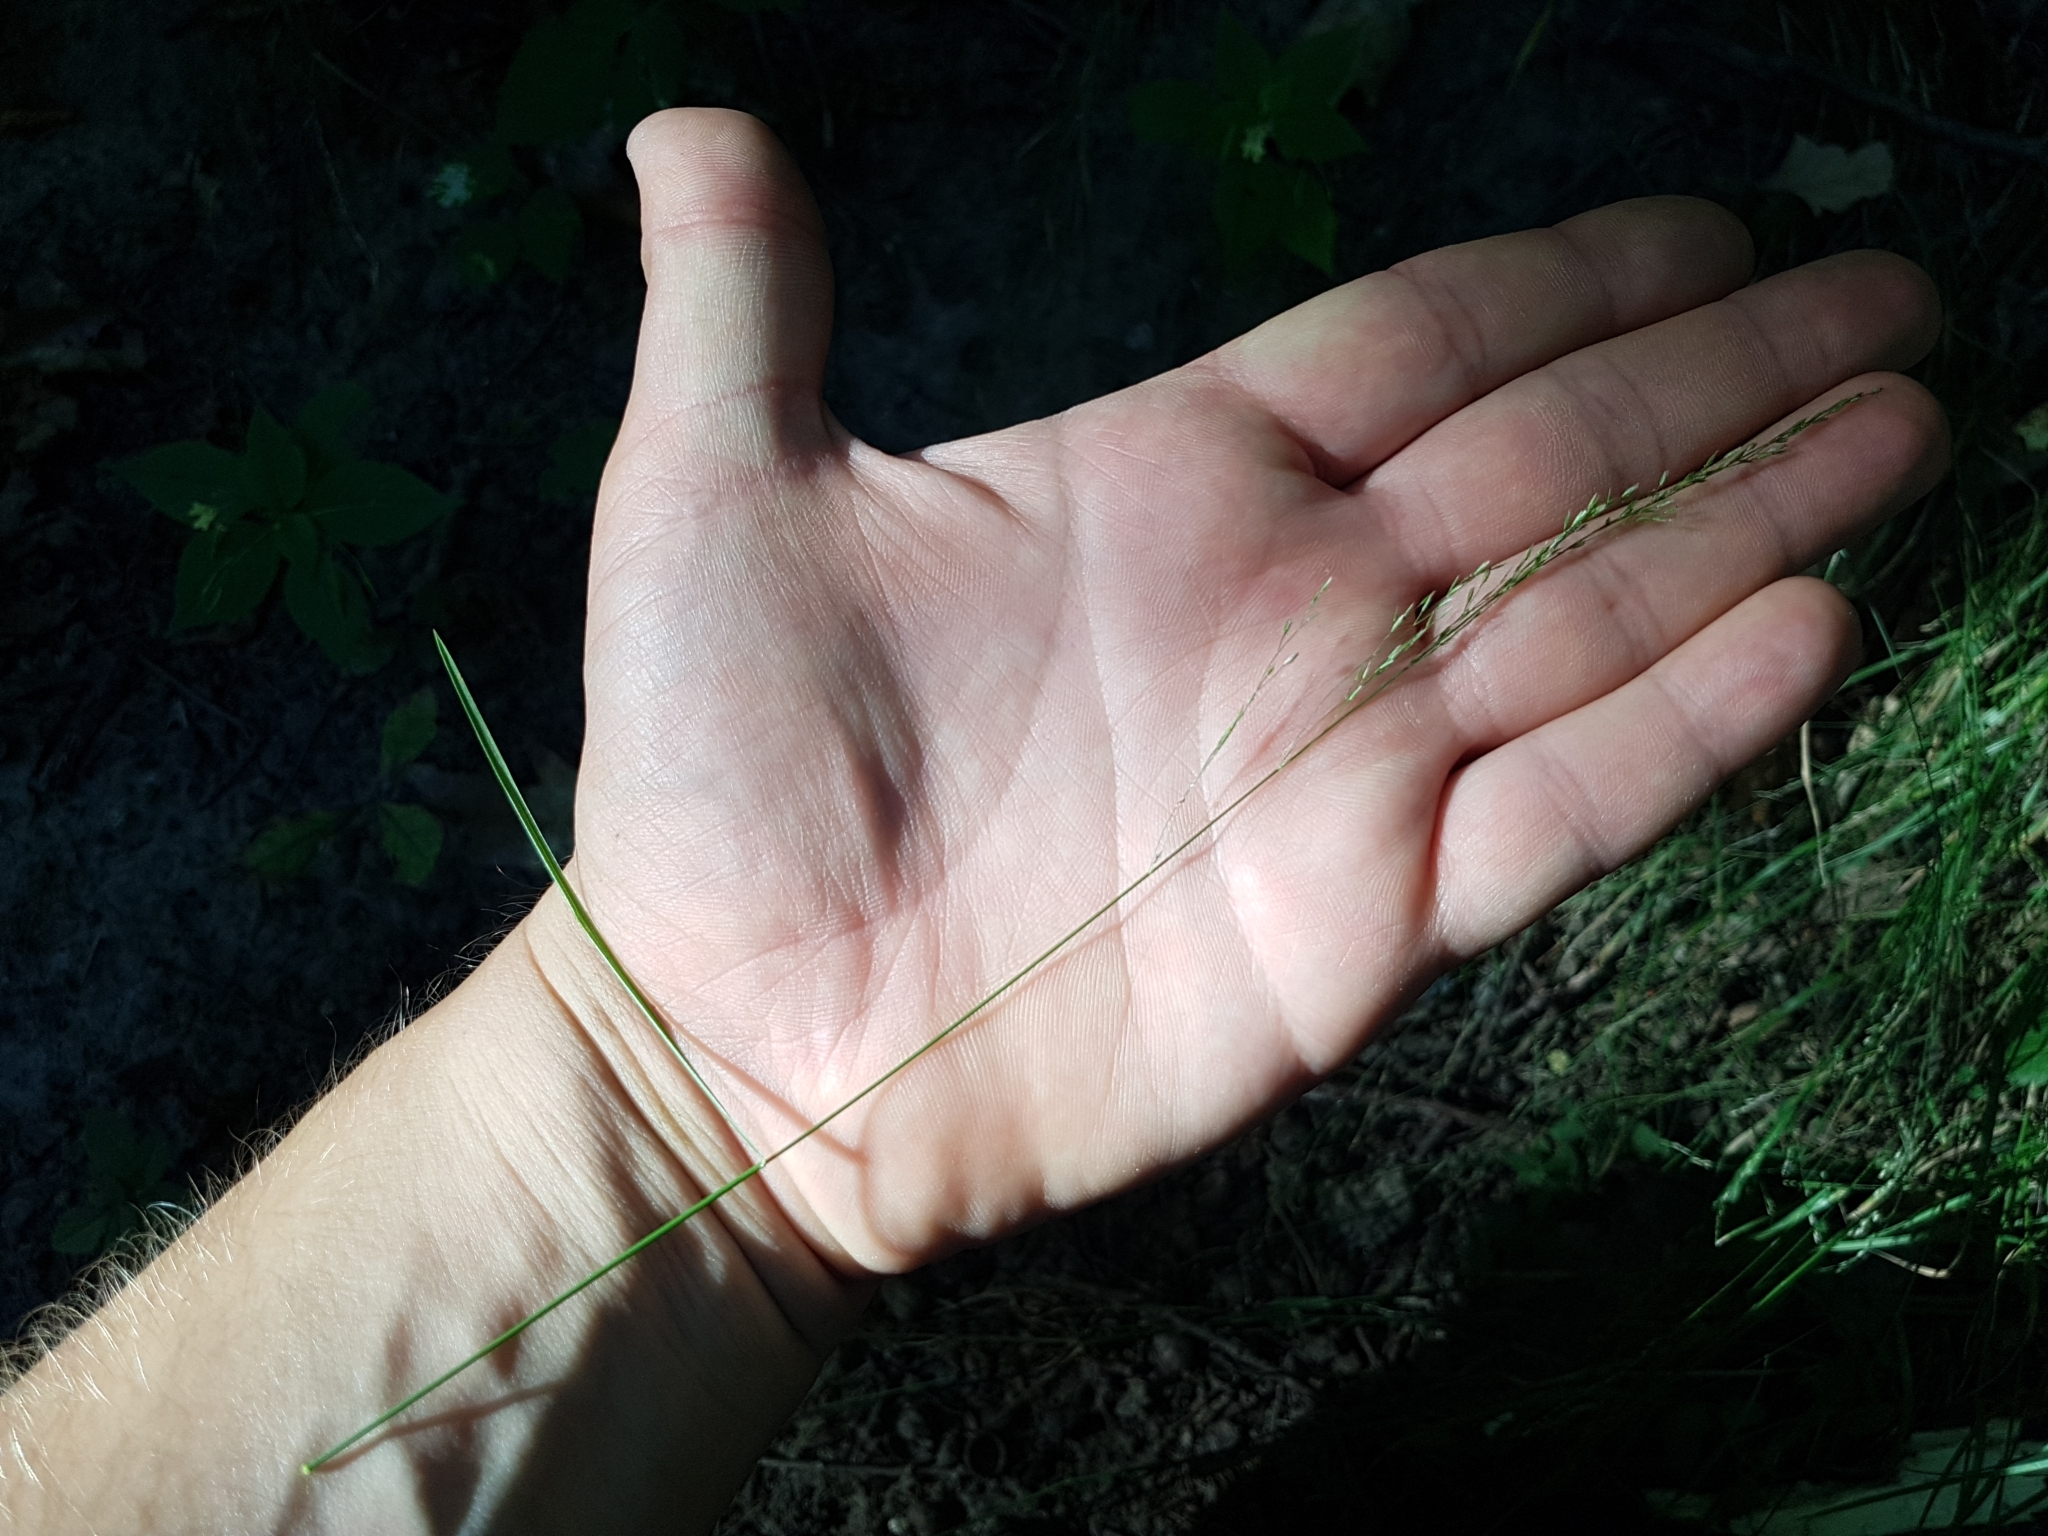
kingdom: Plantae
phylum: Tracheophyta
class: Liliopsida
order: Poales
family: Poaceae
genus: Poa
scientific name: Poa nemoralis
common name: Wood bluegrass
